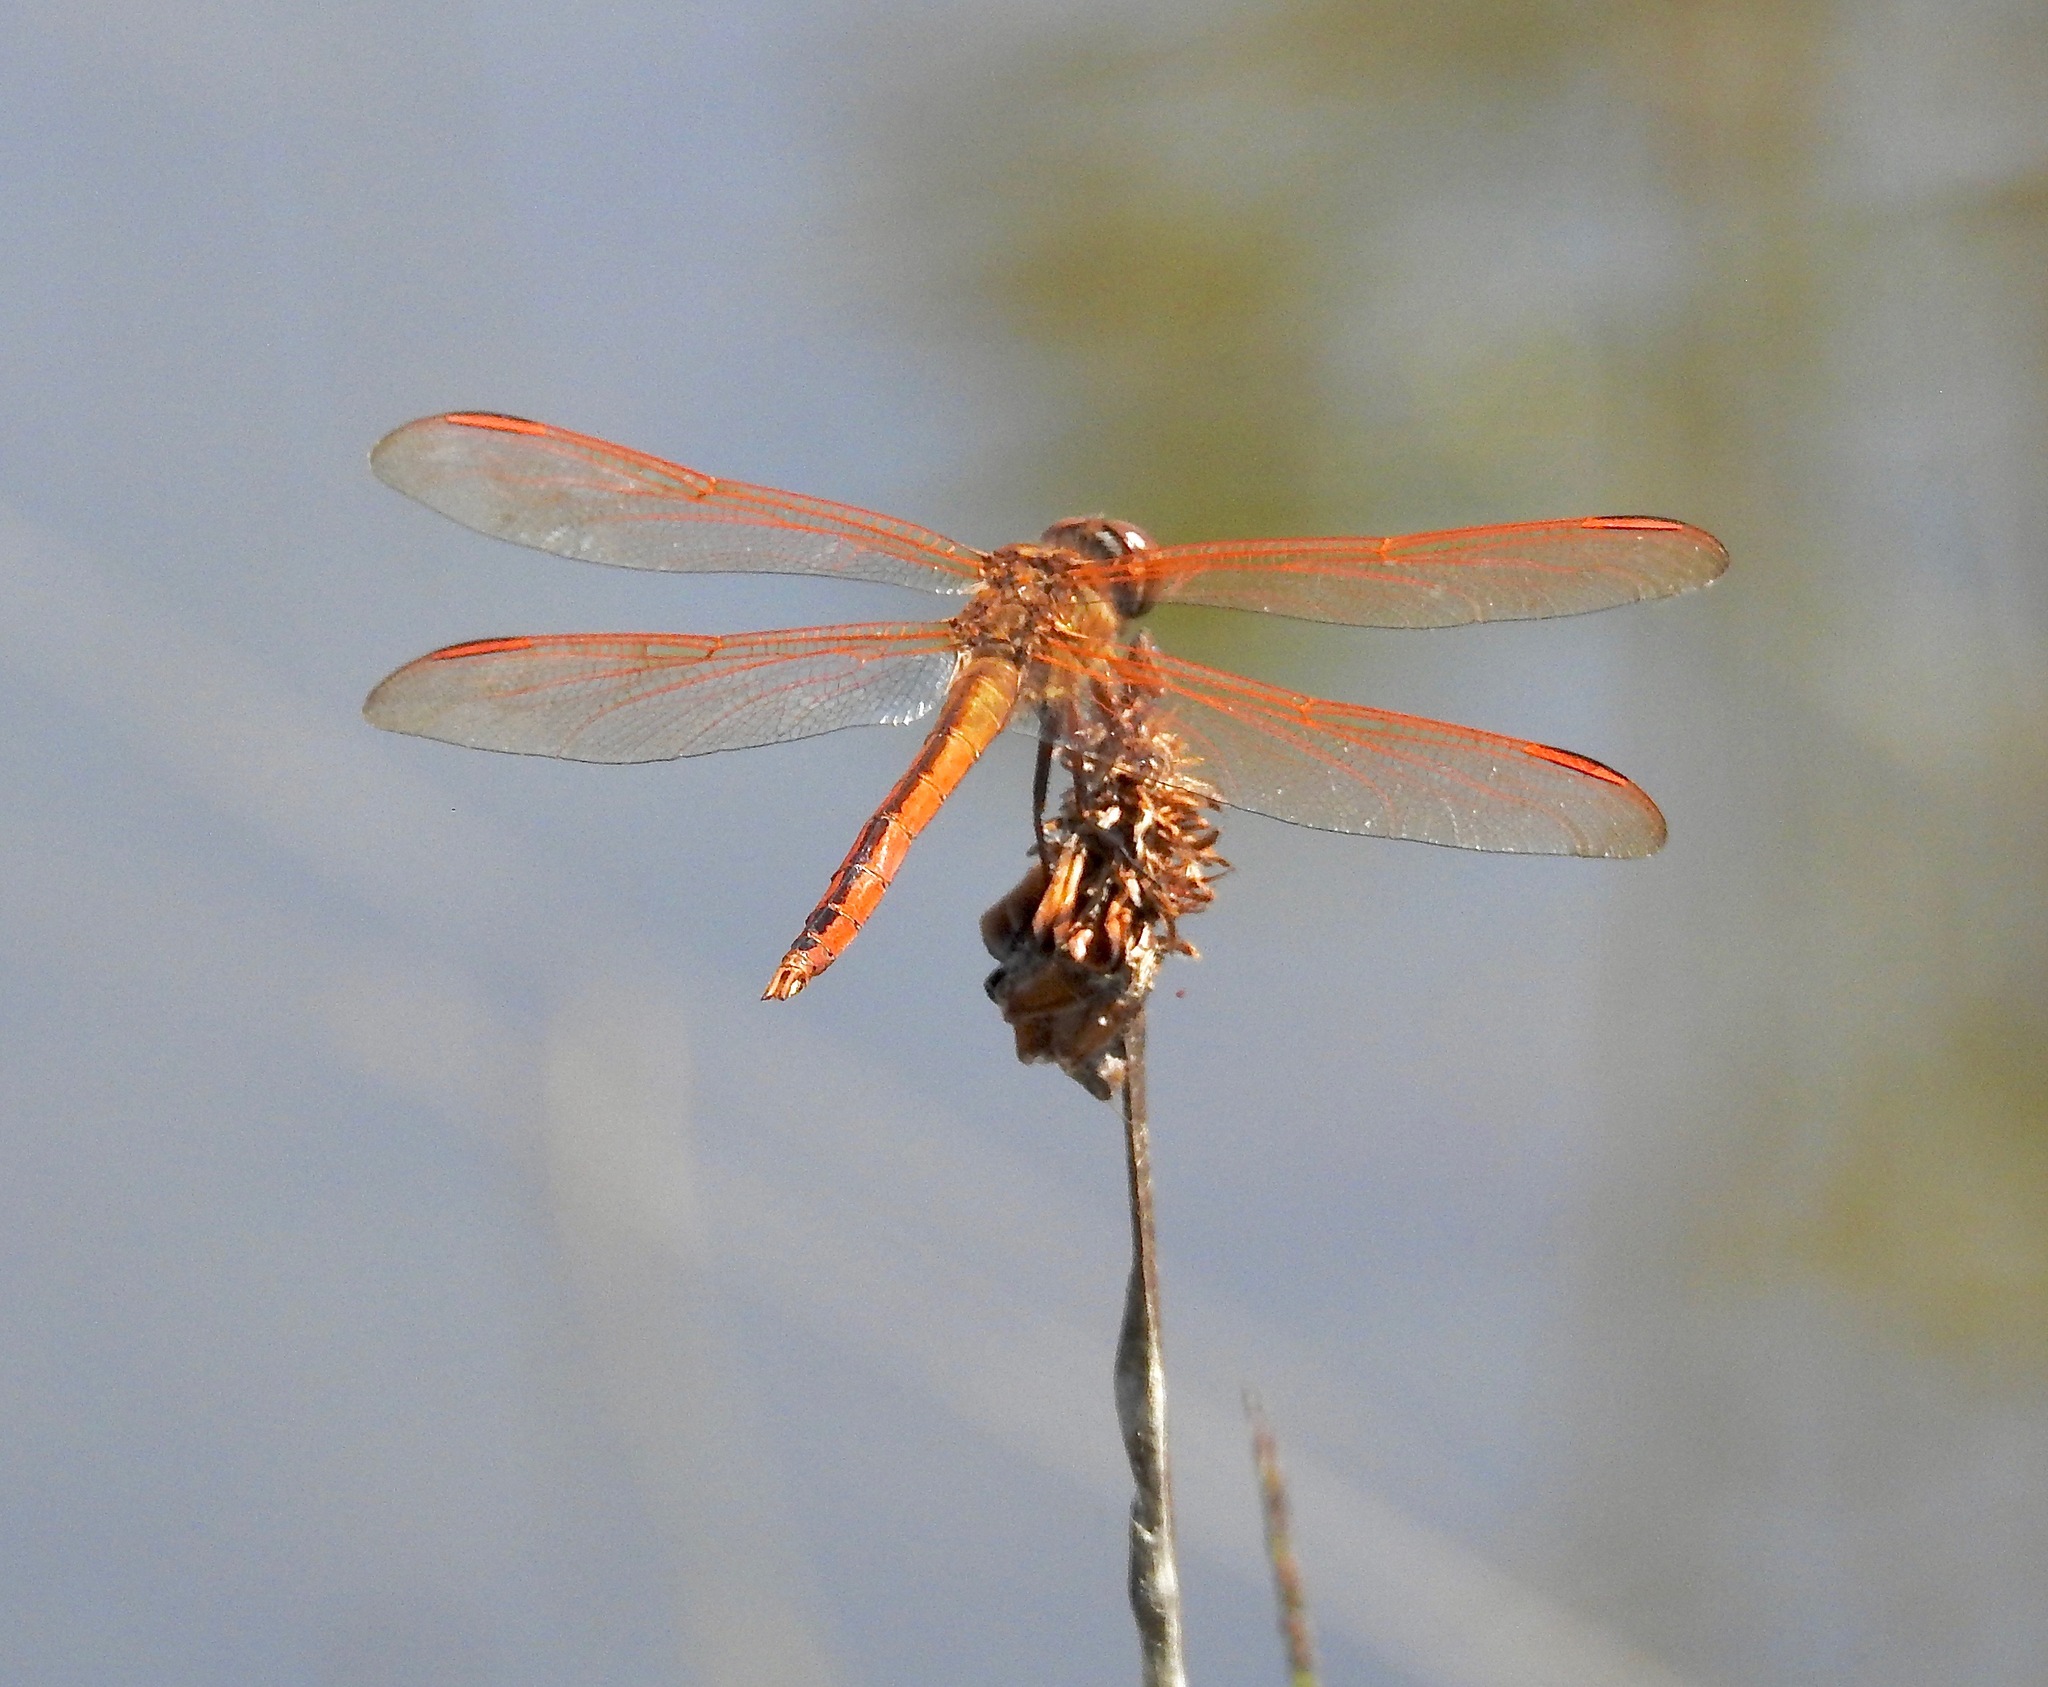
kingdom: Animalia
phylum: Arthropoda
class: Insecta
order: Odonata
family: Libellulidae
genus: Libellula
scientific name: Libellula auripennis
